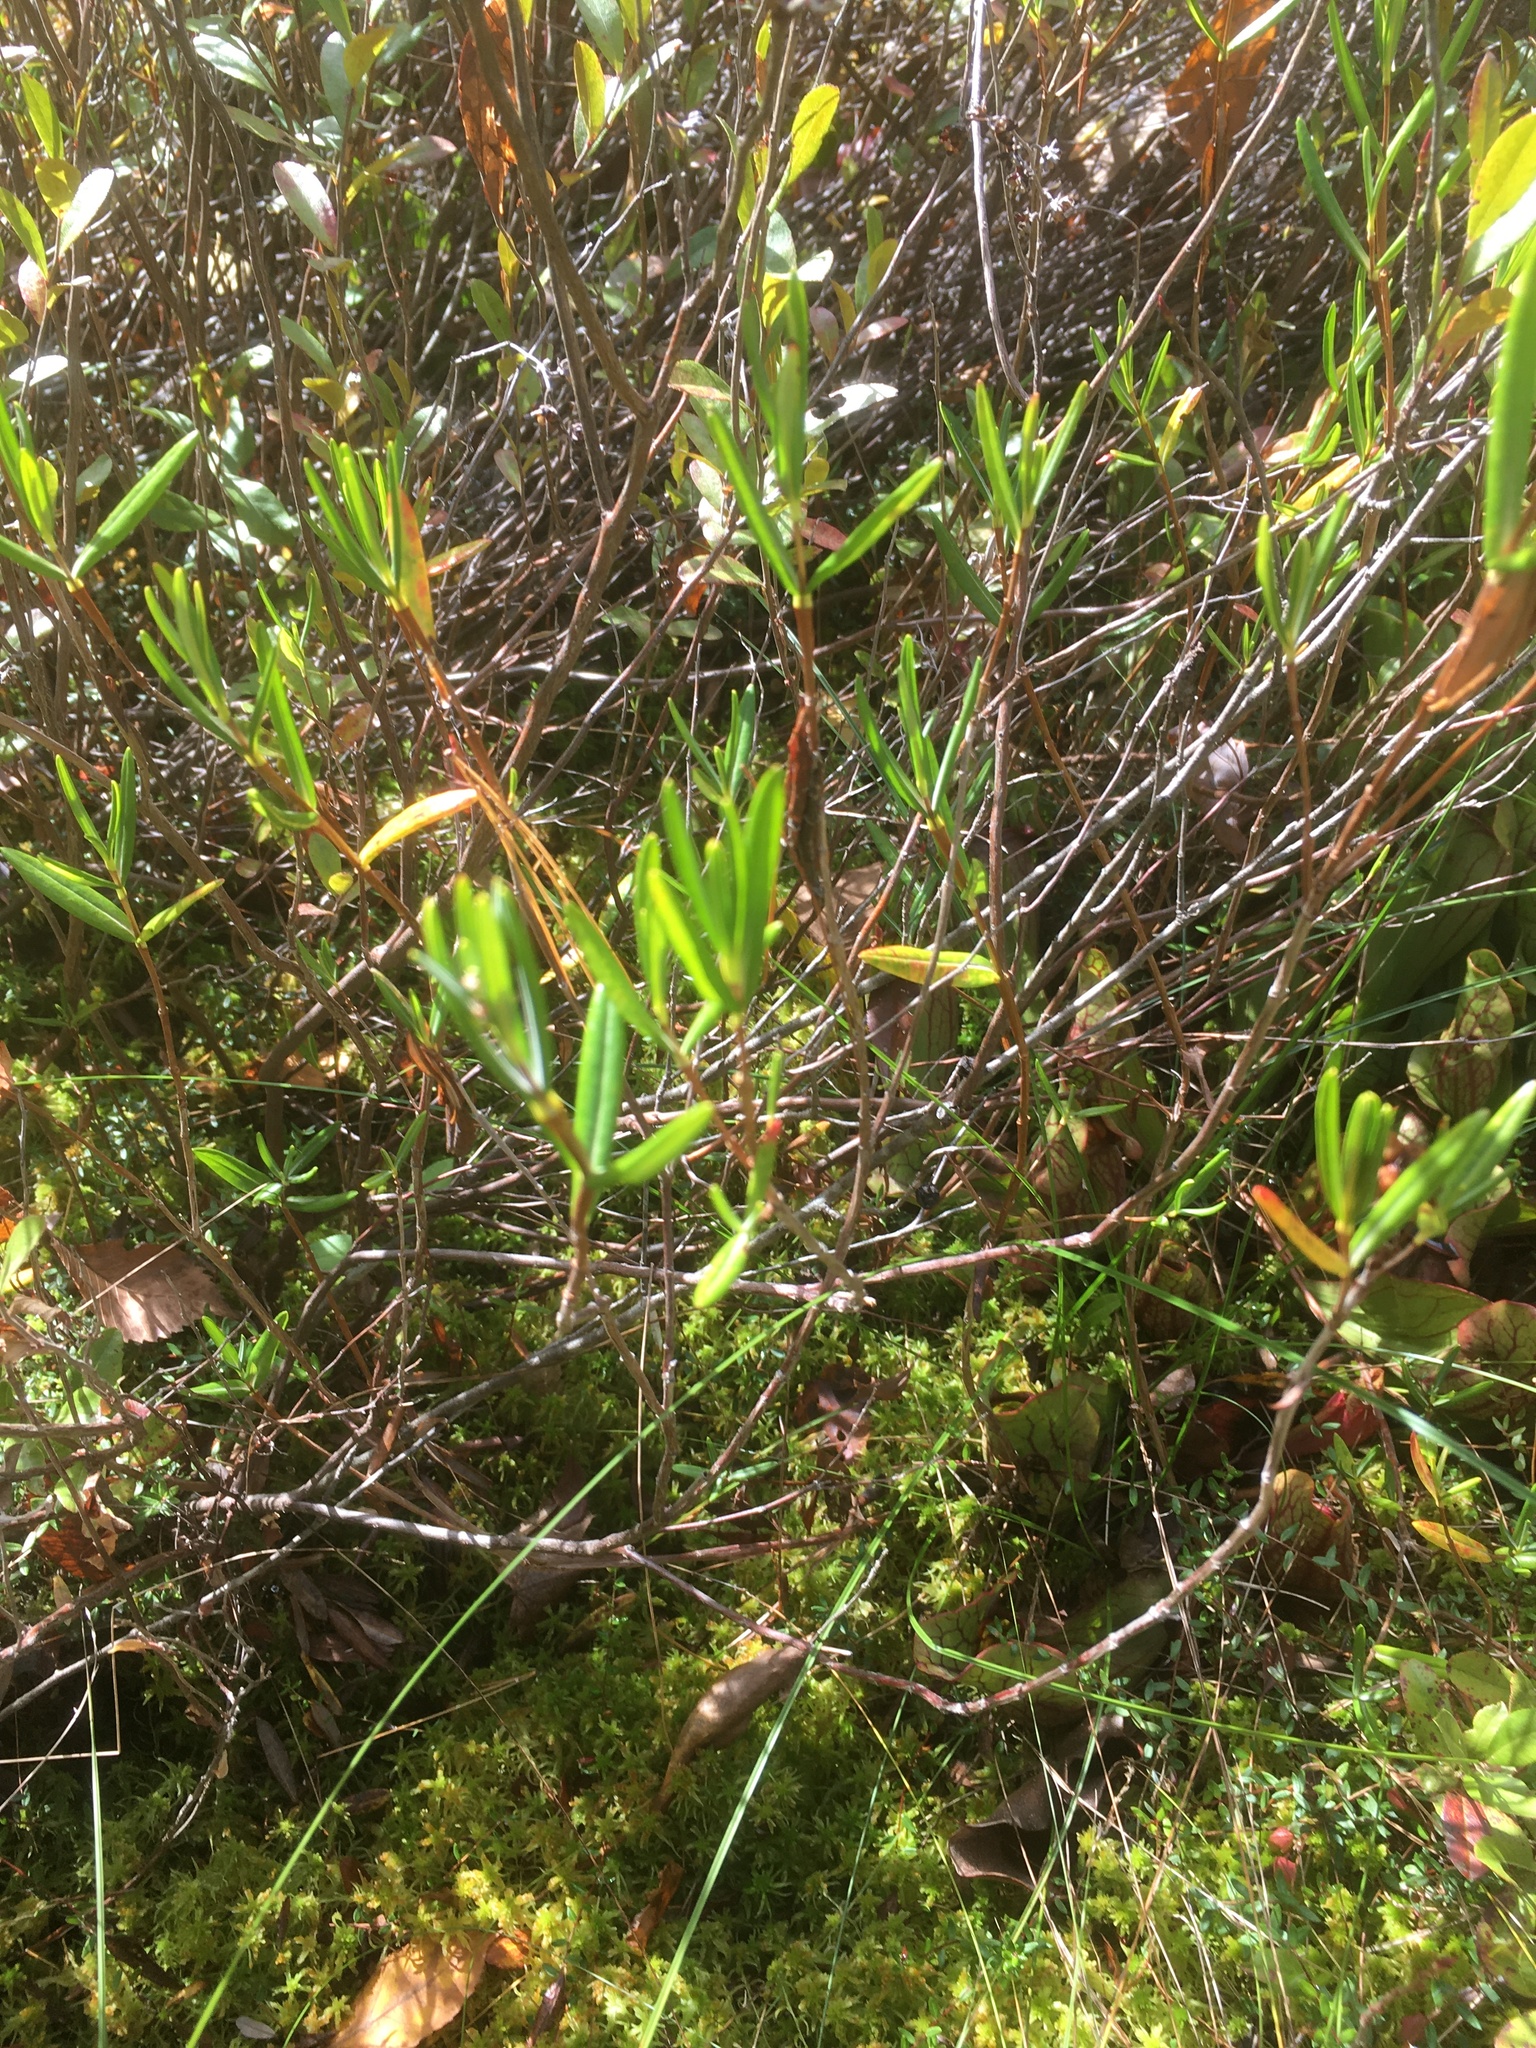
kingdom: Plantae
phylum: Tracheophyta
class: Magnoliopsida
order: Ericales
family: Ericaceae
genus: Kalmia
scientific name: Kalmia polifolia
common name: Bog-laurel
